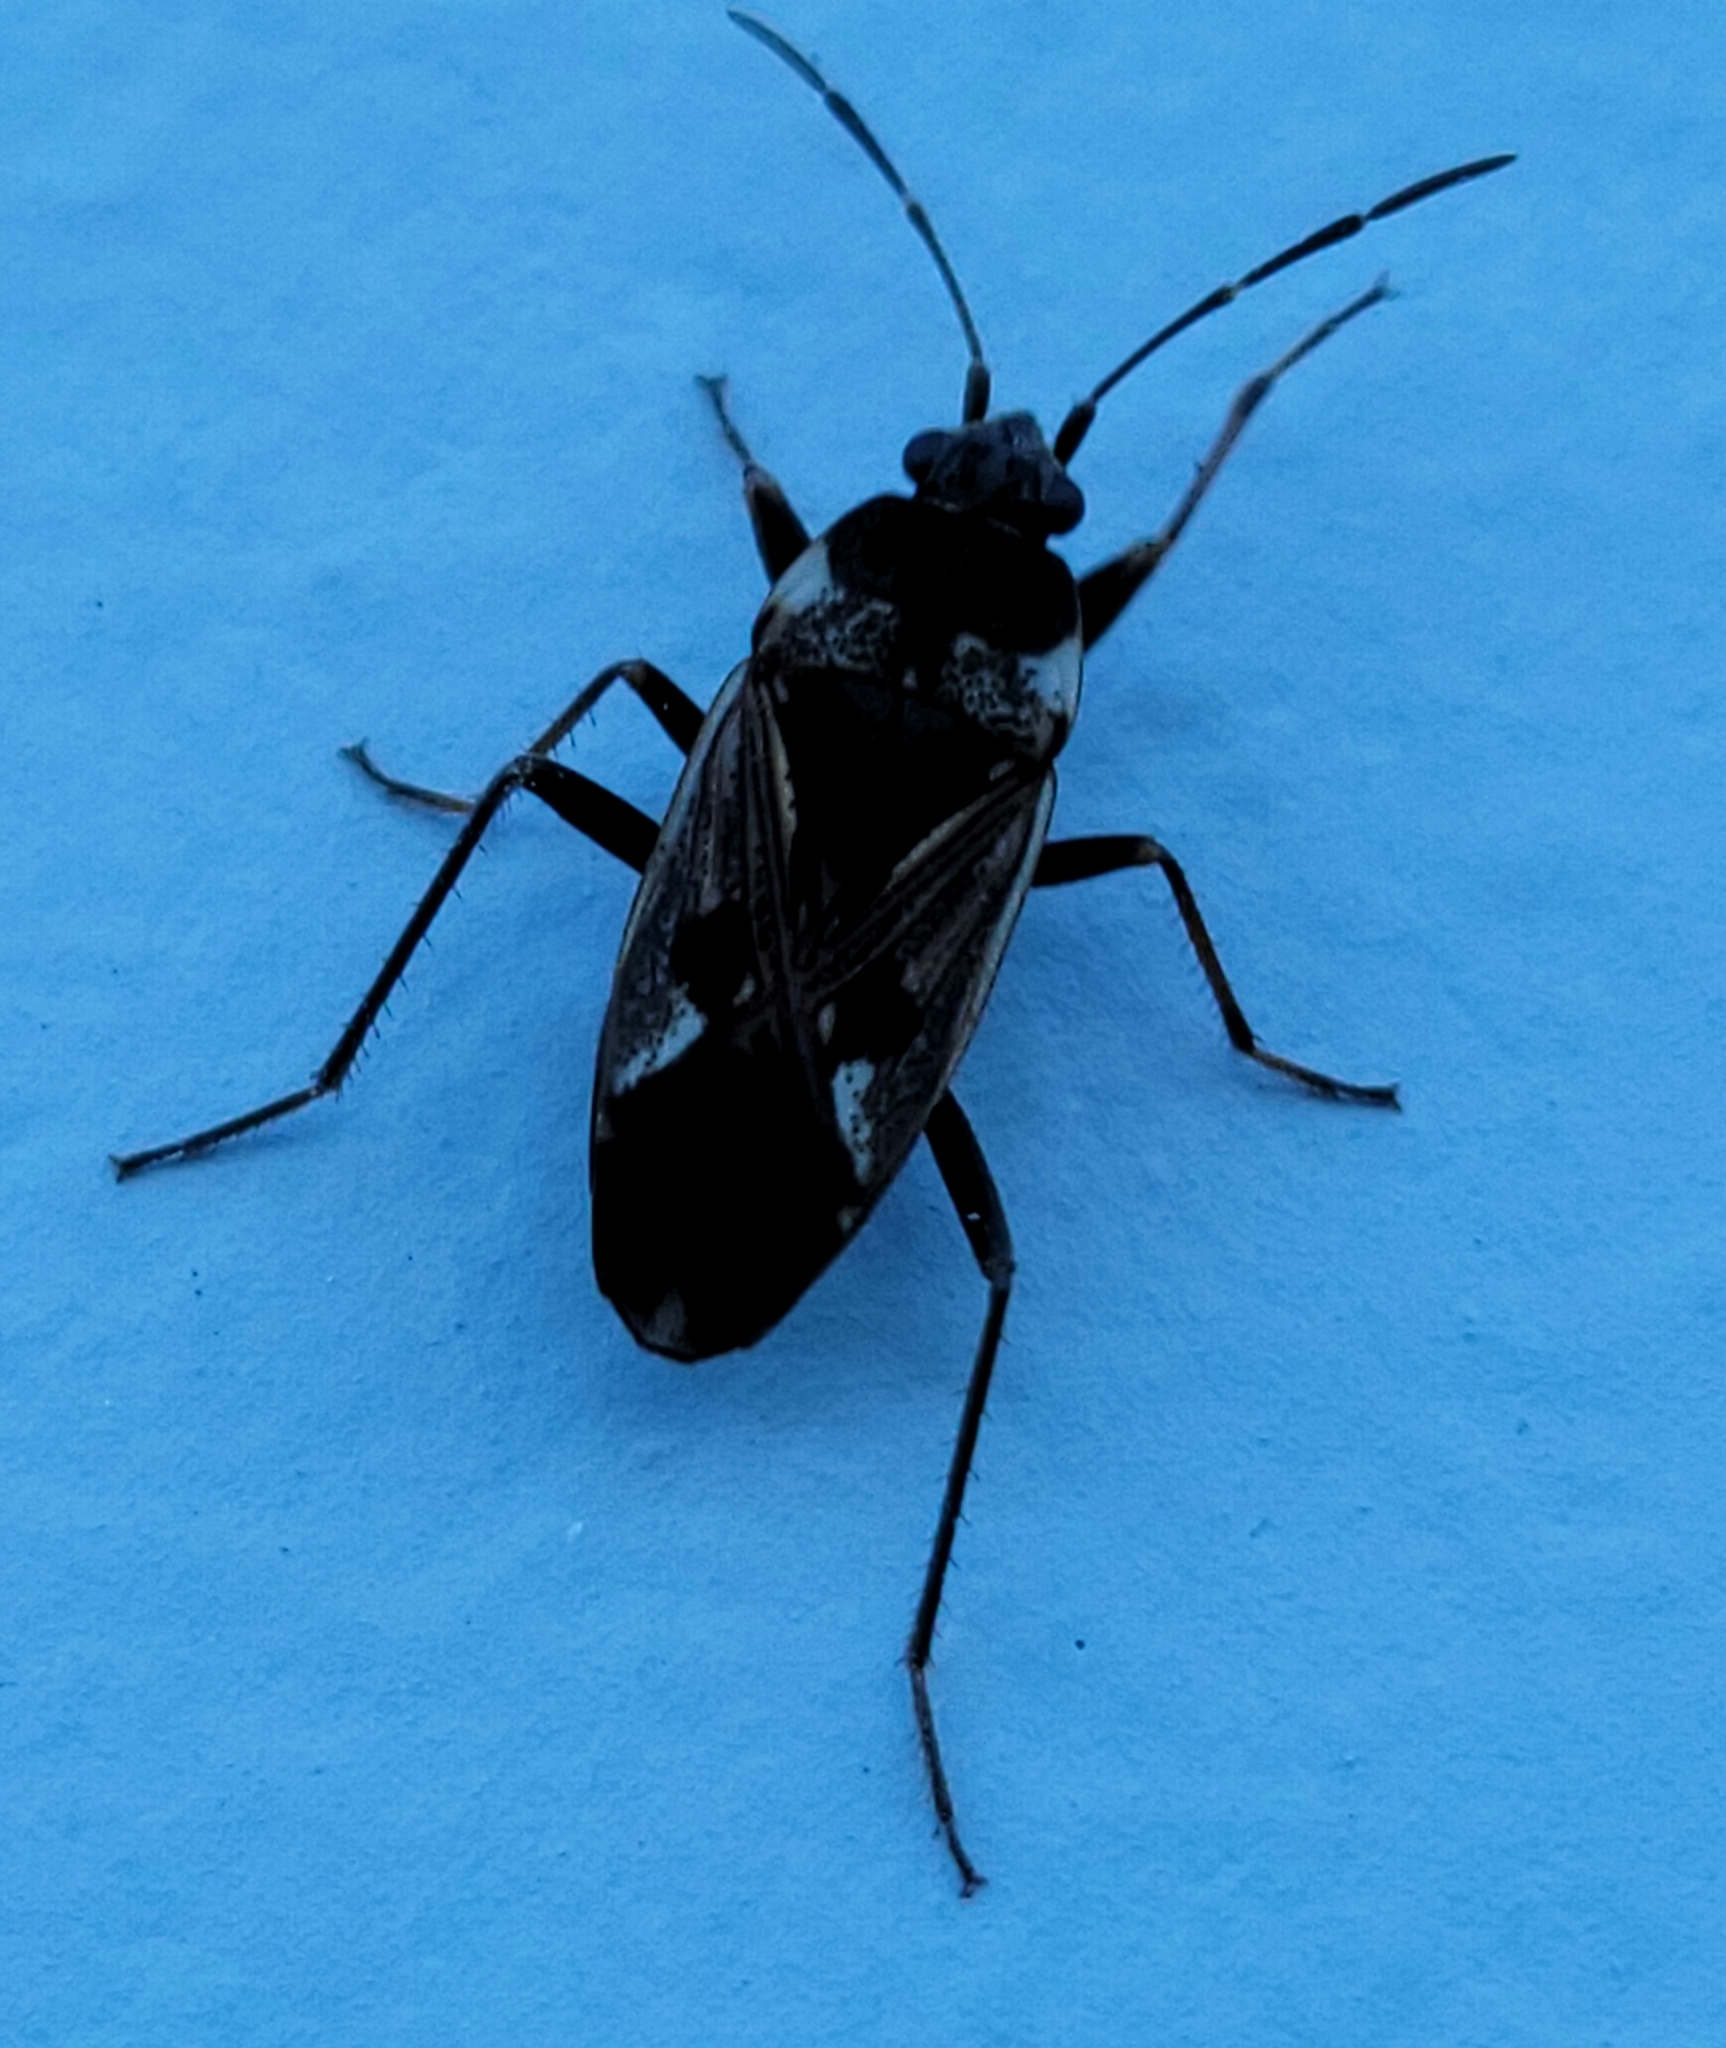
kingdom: Animalia
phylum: Arthropoda
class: Insecta
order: Hemiptera
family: Rhyparochromidae
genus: Rhyparochromus
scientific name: Rhyparochromus vulgaris
